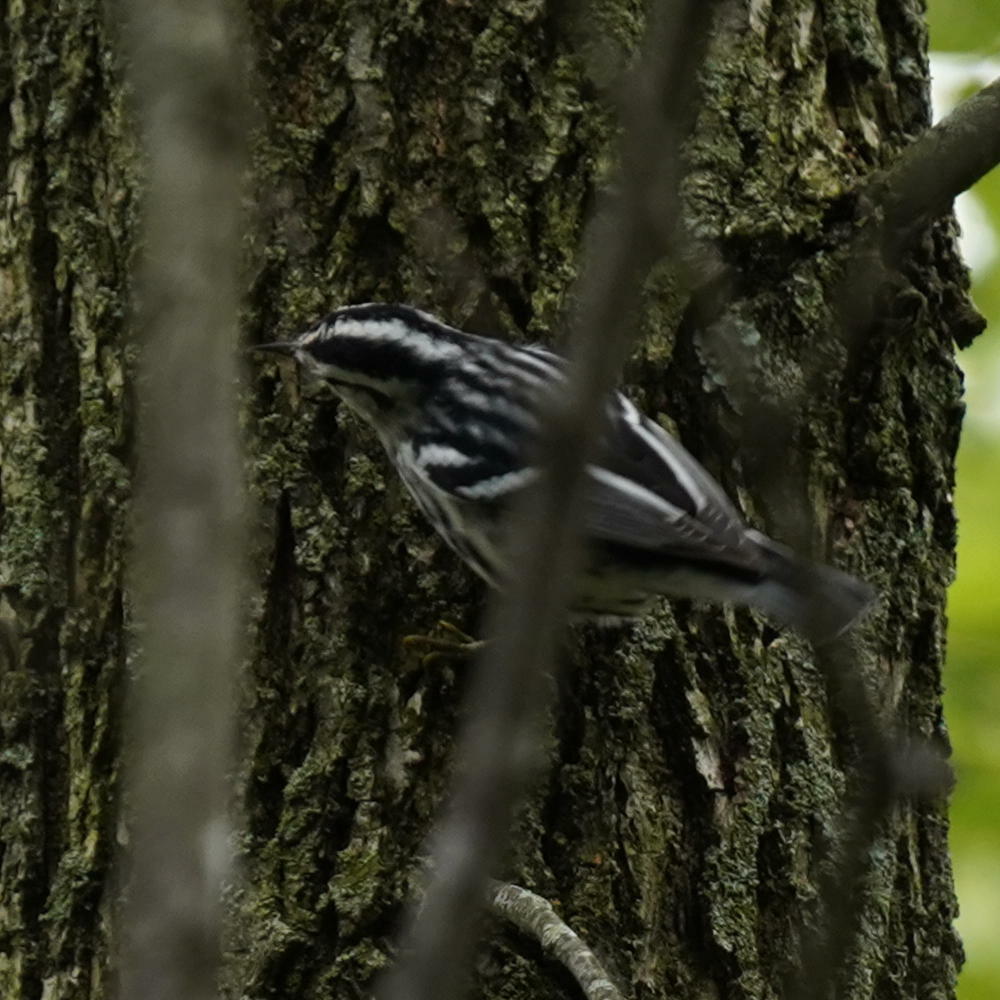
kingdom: Animalia
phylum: Chordata
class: Aves
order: Passeriformes
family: Parulidae
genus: Mniotilta
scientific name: Mniotilta varia
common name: Black-and-white warbler
